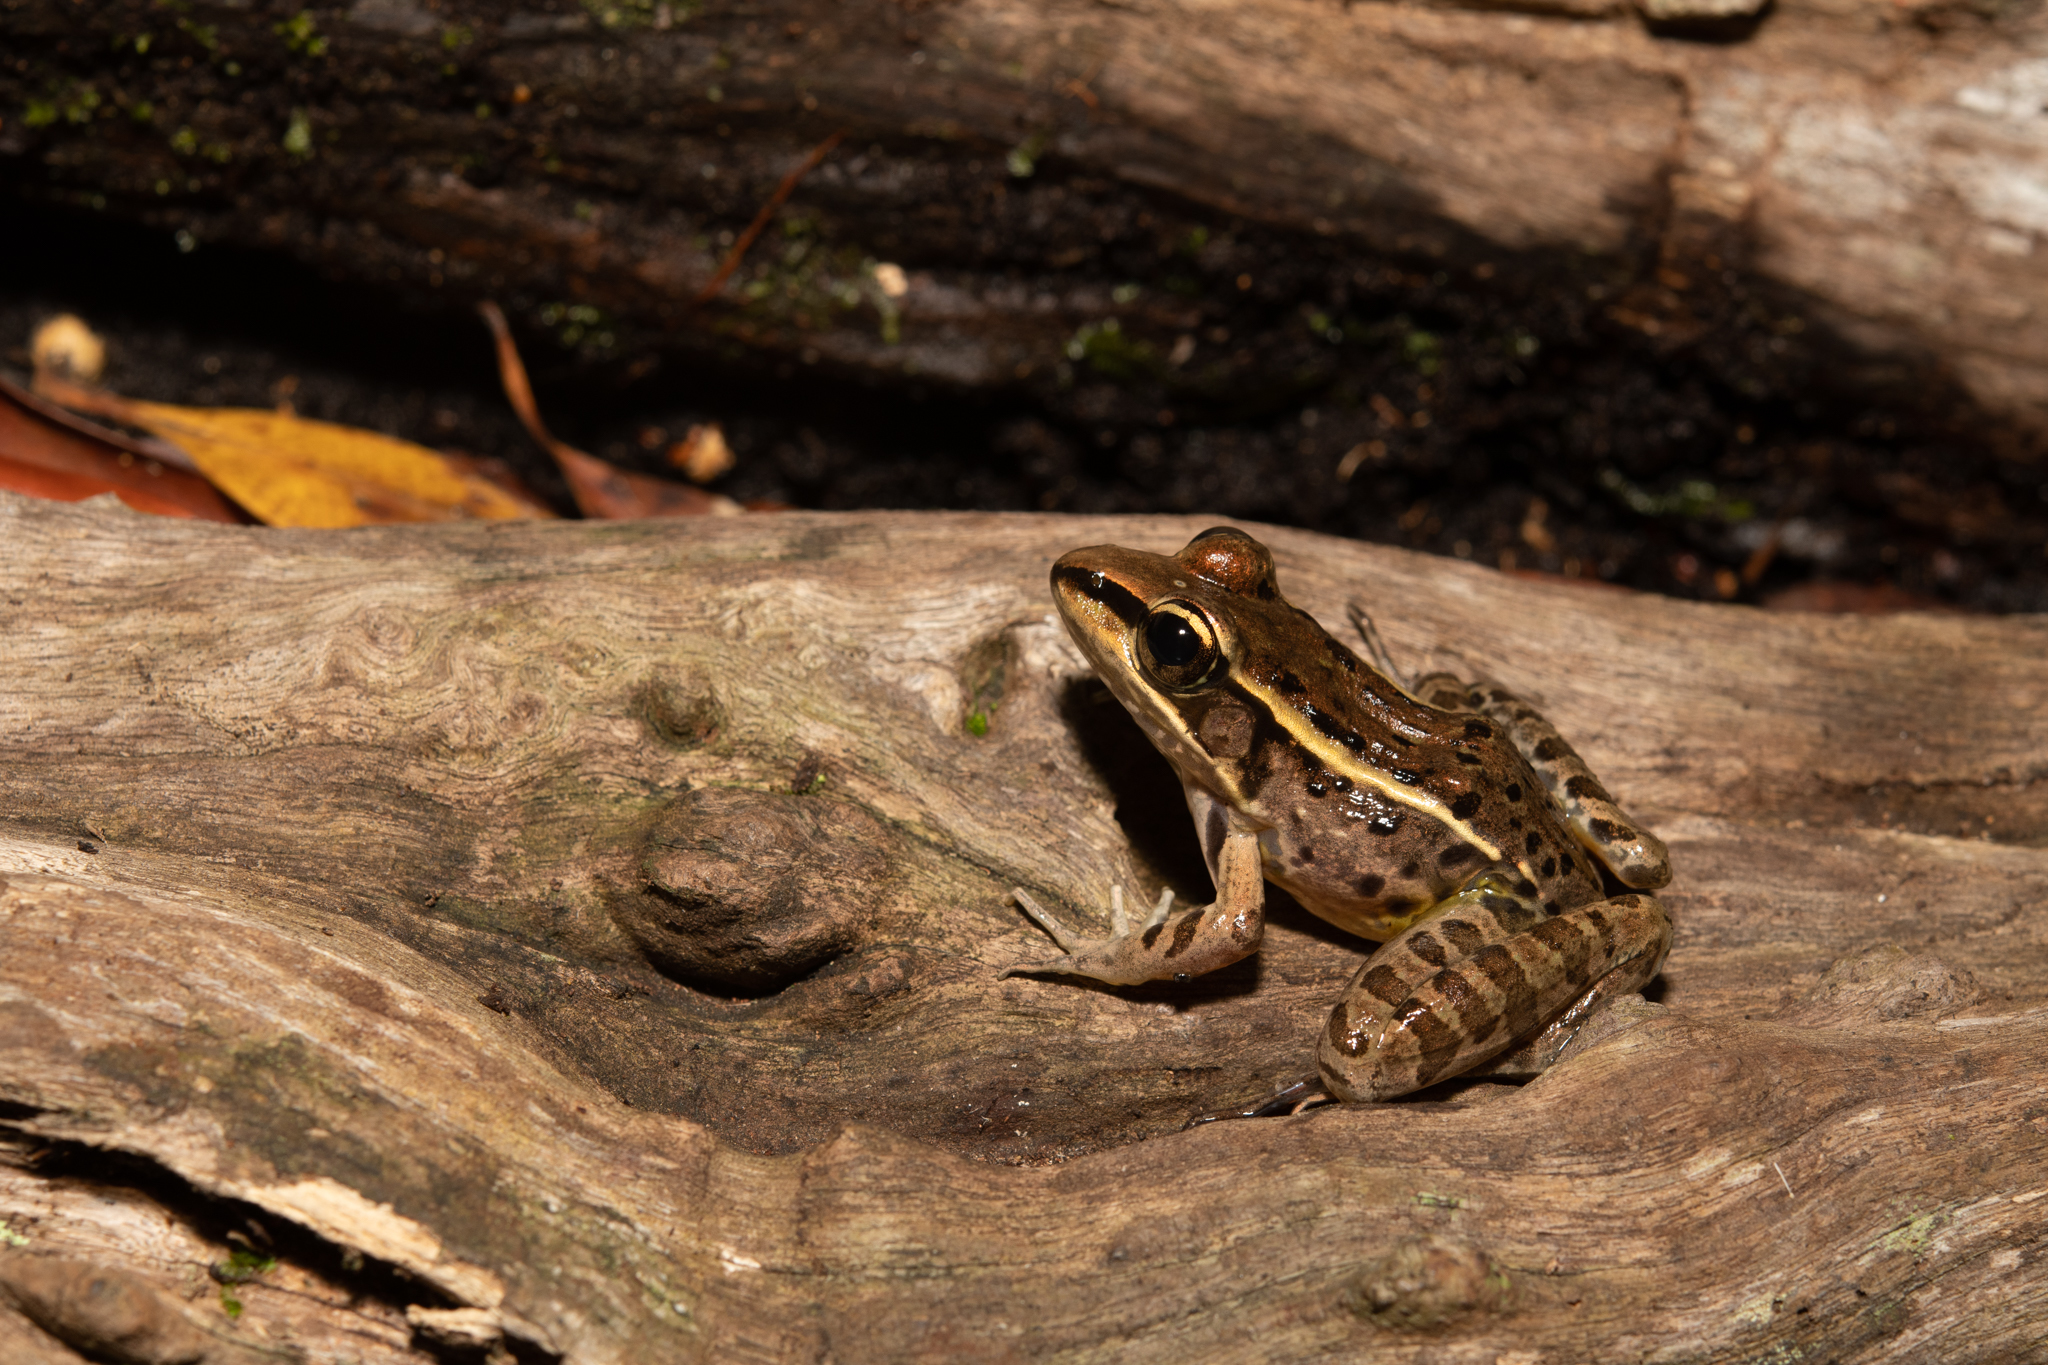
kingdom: Animalia
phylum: Chordata
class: Amphibia
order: Anura
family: Ranidae
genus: Lithobates
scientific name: Lithobates brownorum
